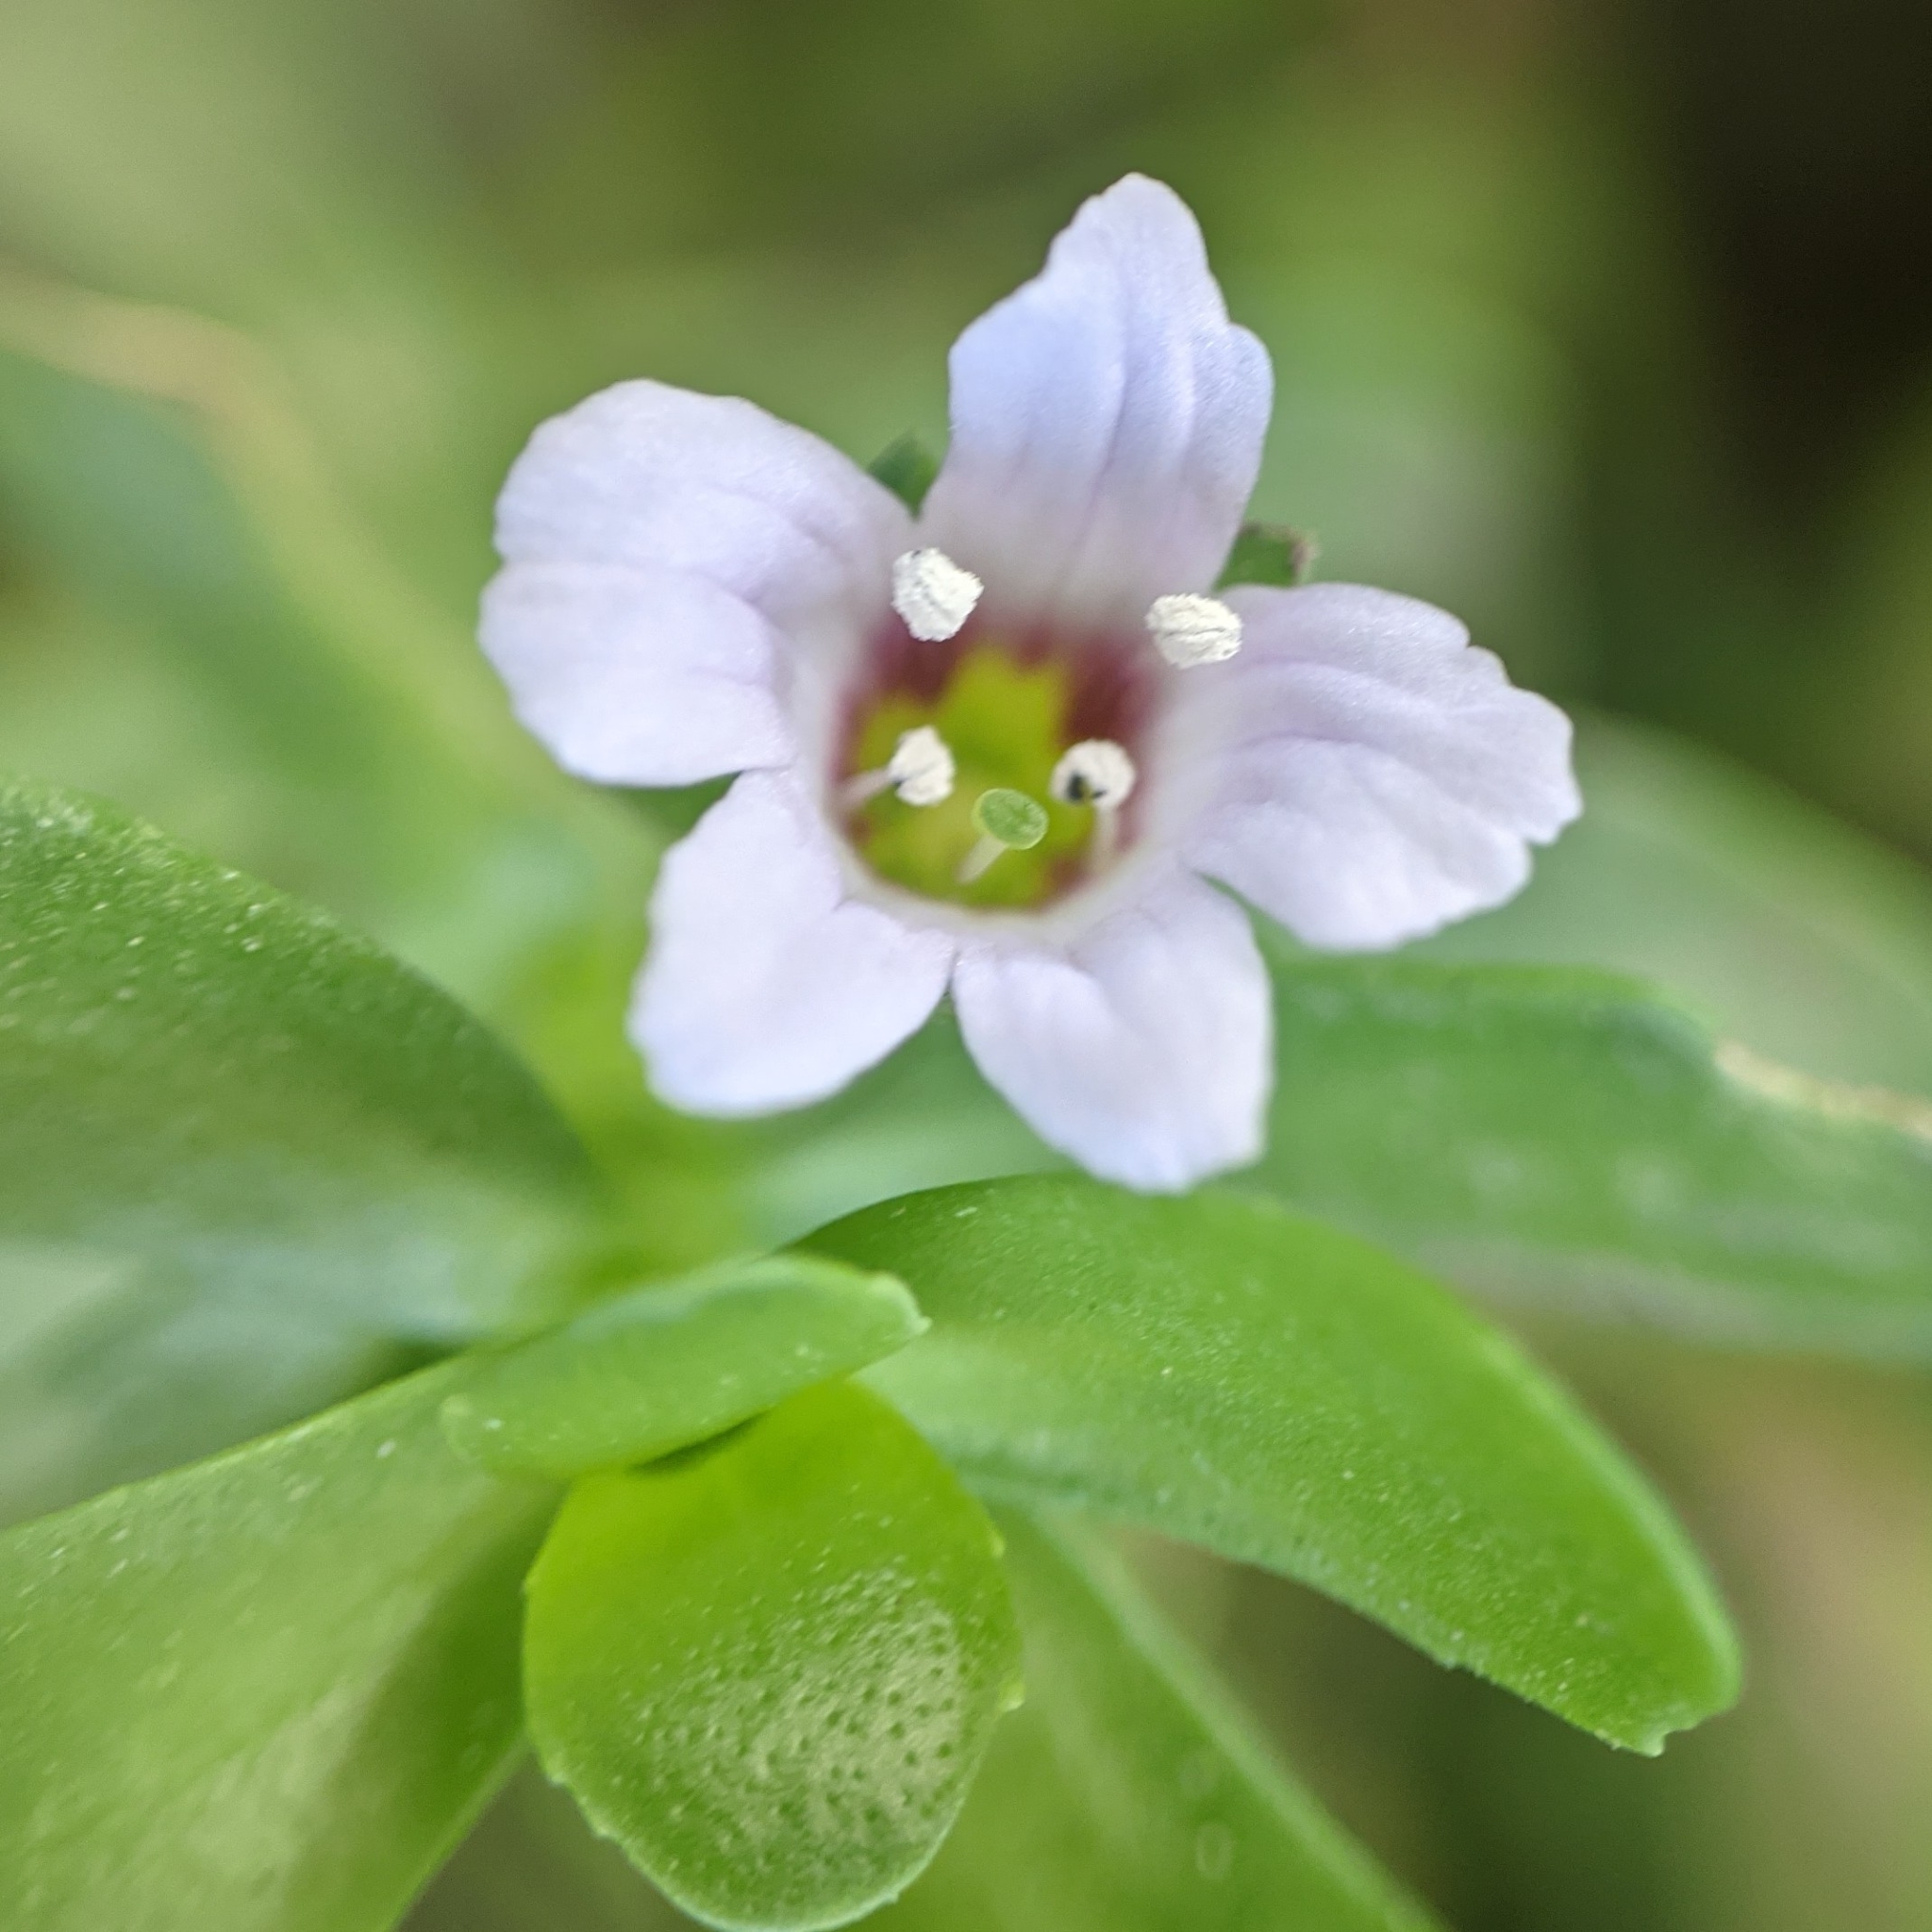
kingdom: Plantae
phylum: Tracheophyta
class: Magnoliopsida
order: Lamiales
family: Plantaginaceae
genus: Bacopa
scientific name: Bacopa monnieri
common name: Indian-pennywort
